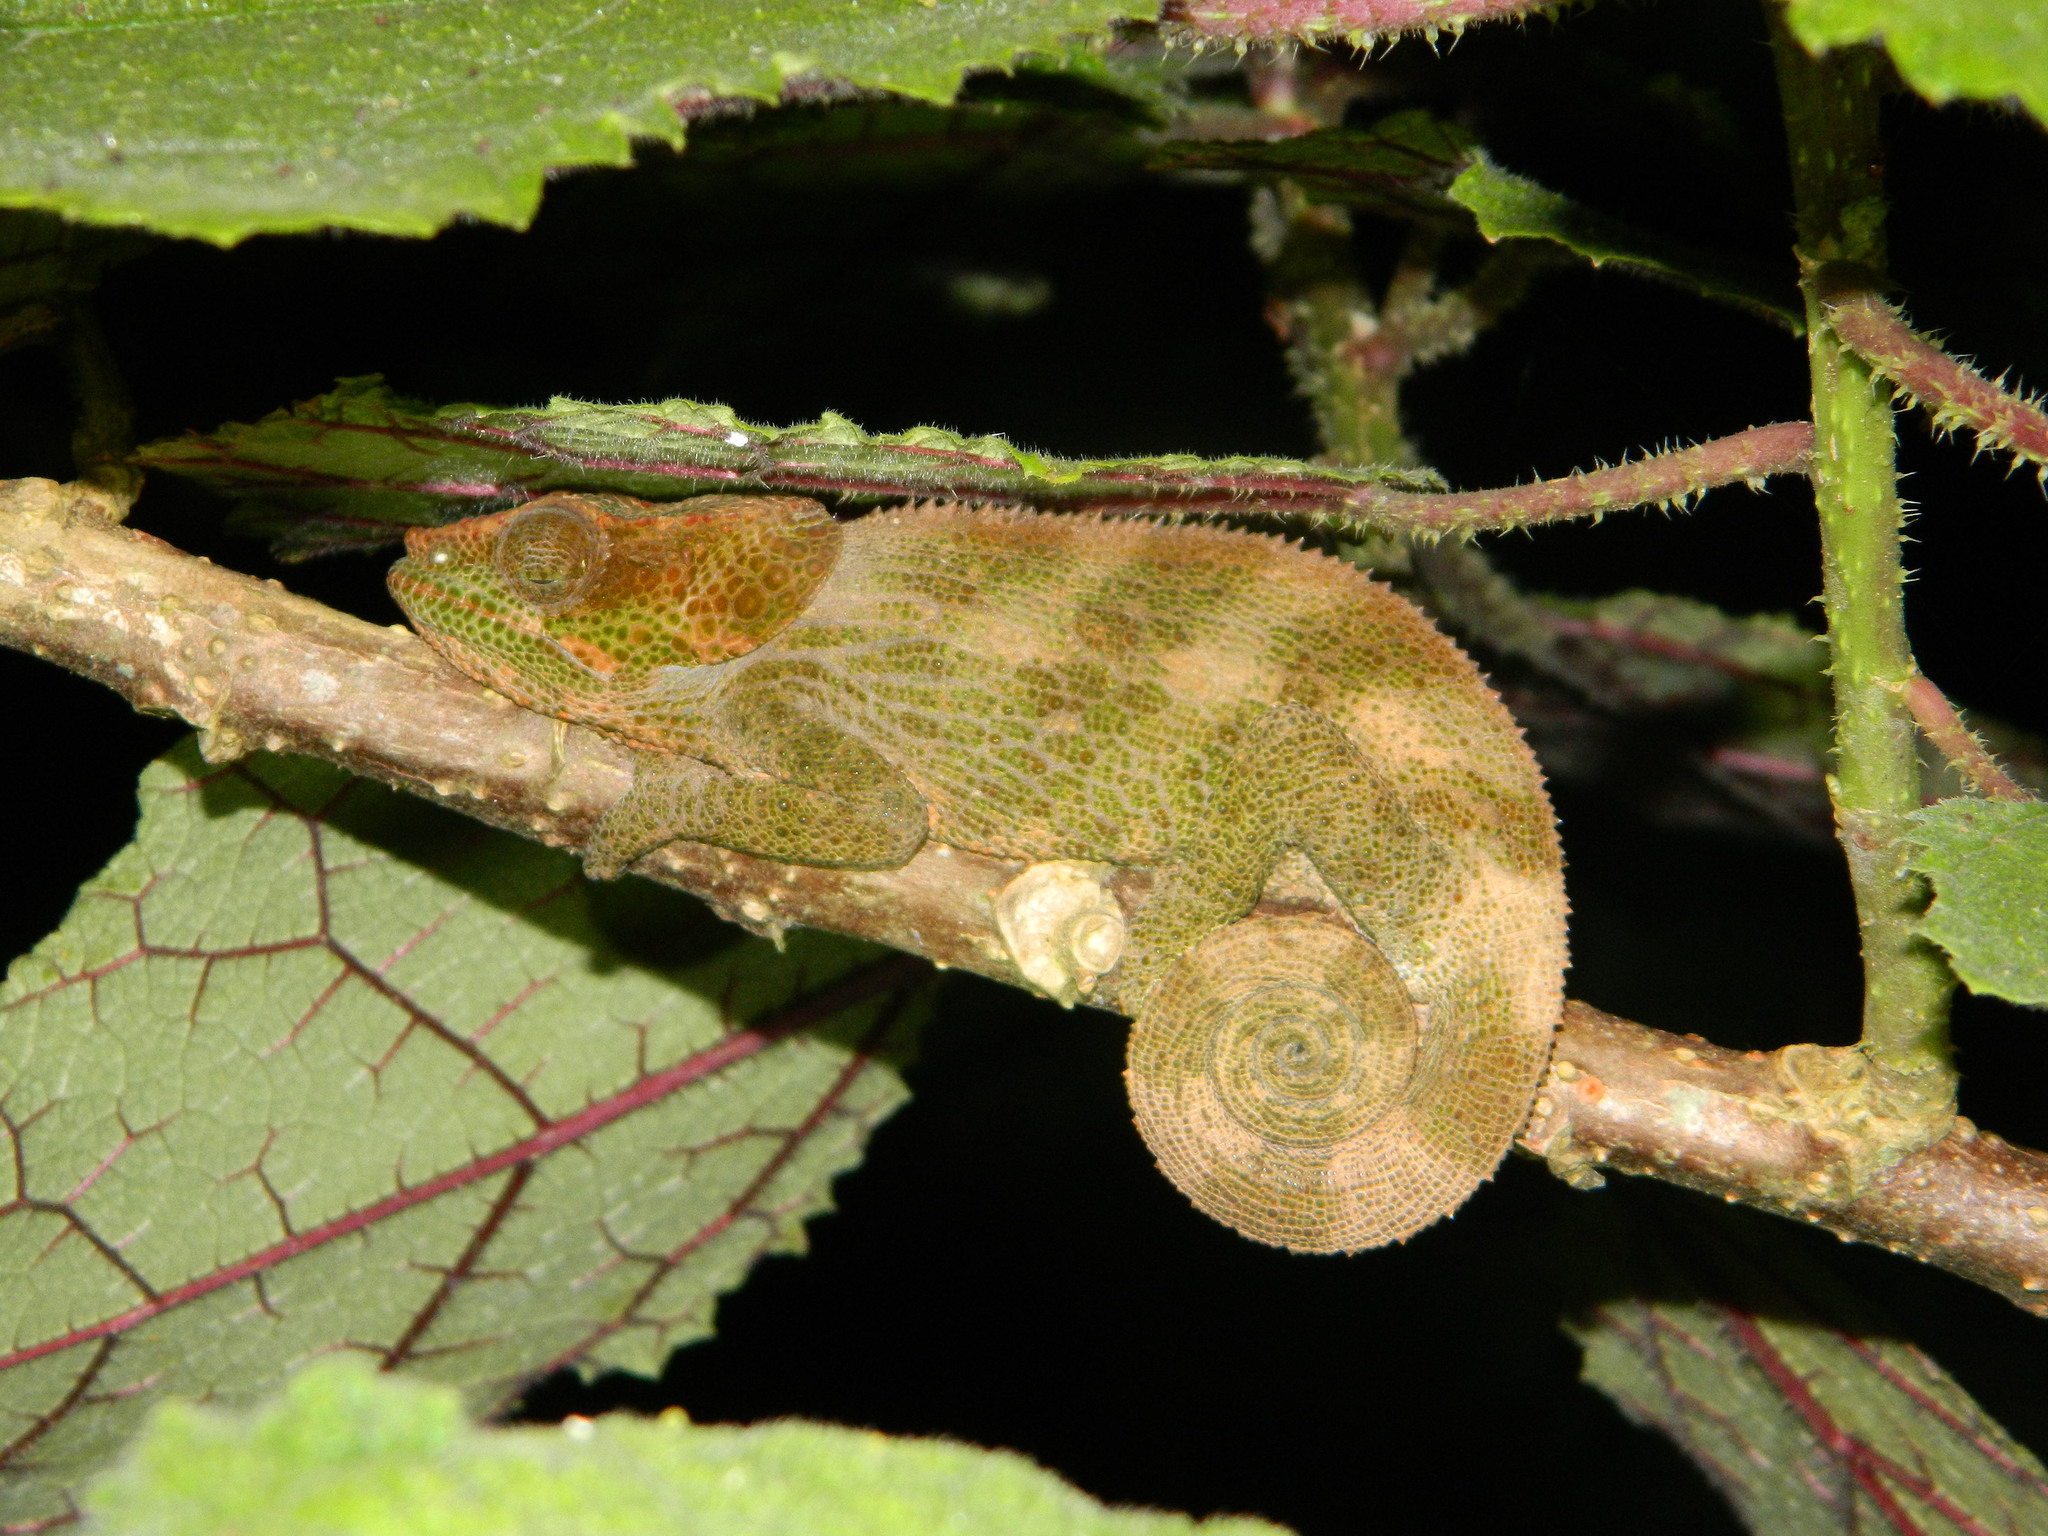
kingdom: Animalia
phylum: Chordata
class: Squamata
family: Chamaeleonidae
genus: Calumma
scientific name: Calumma crypticum
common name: Cryptic chameleon
